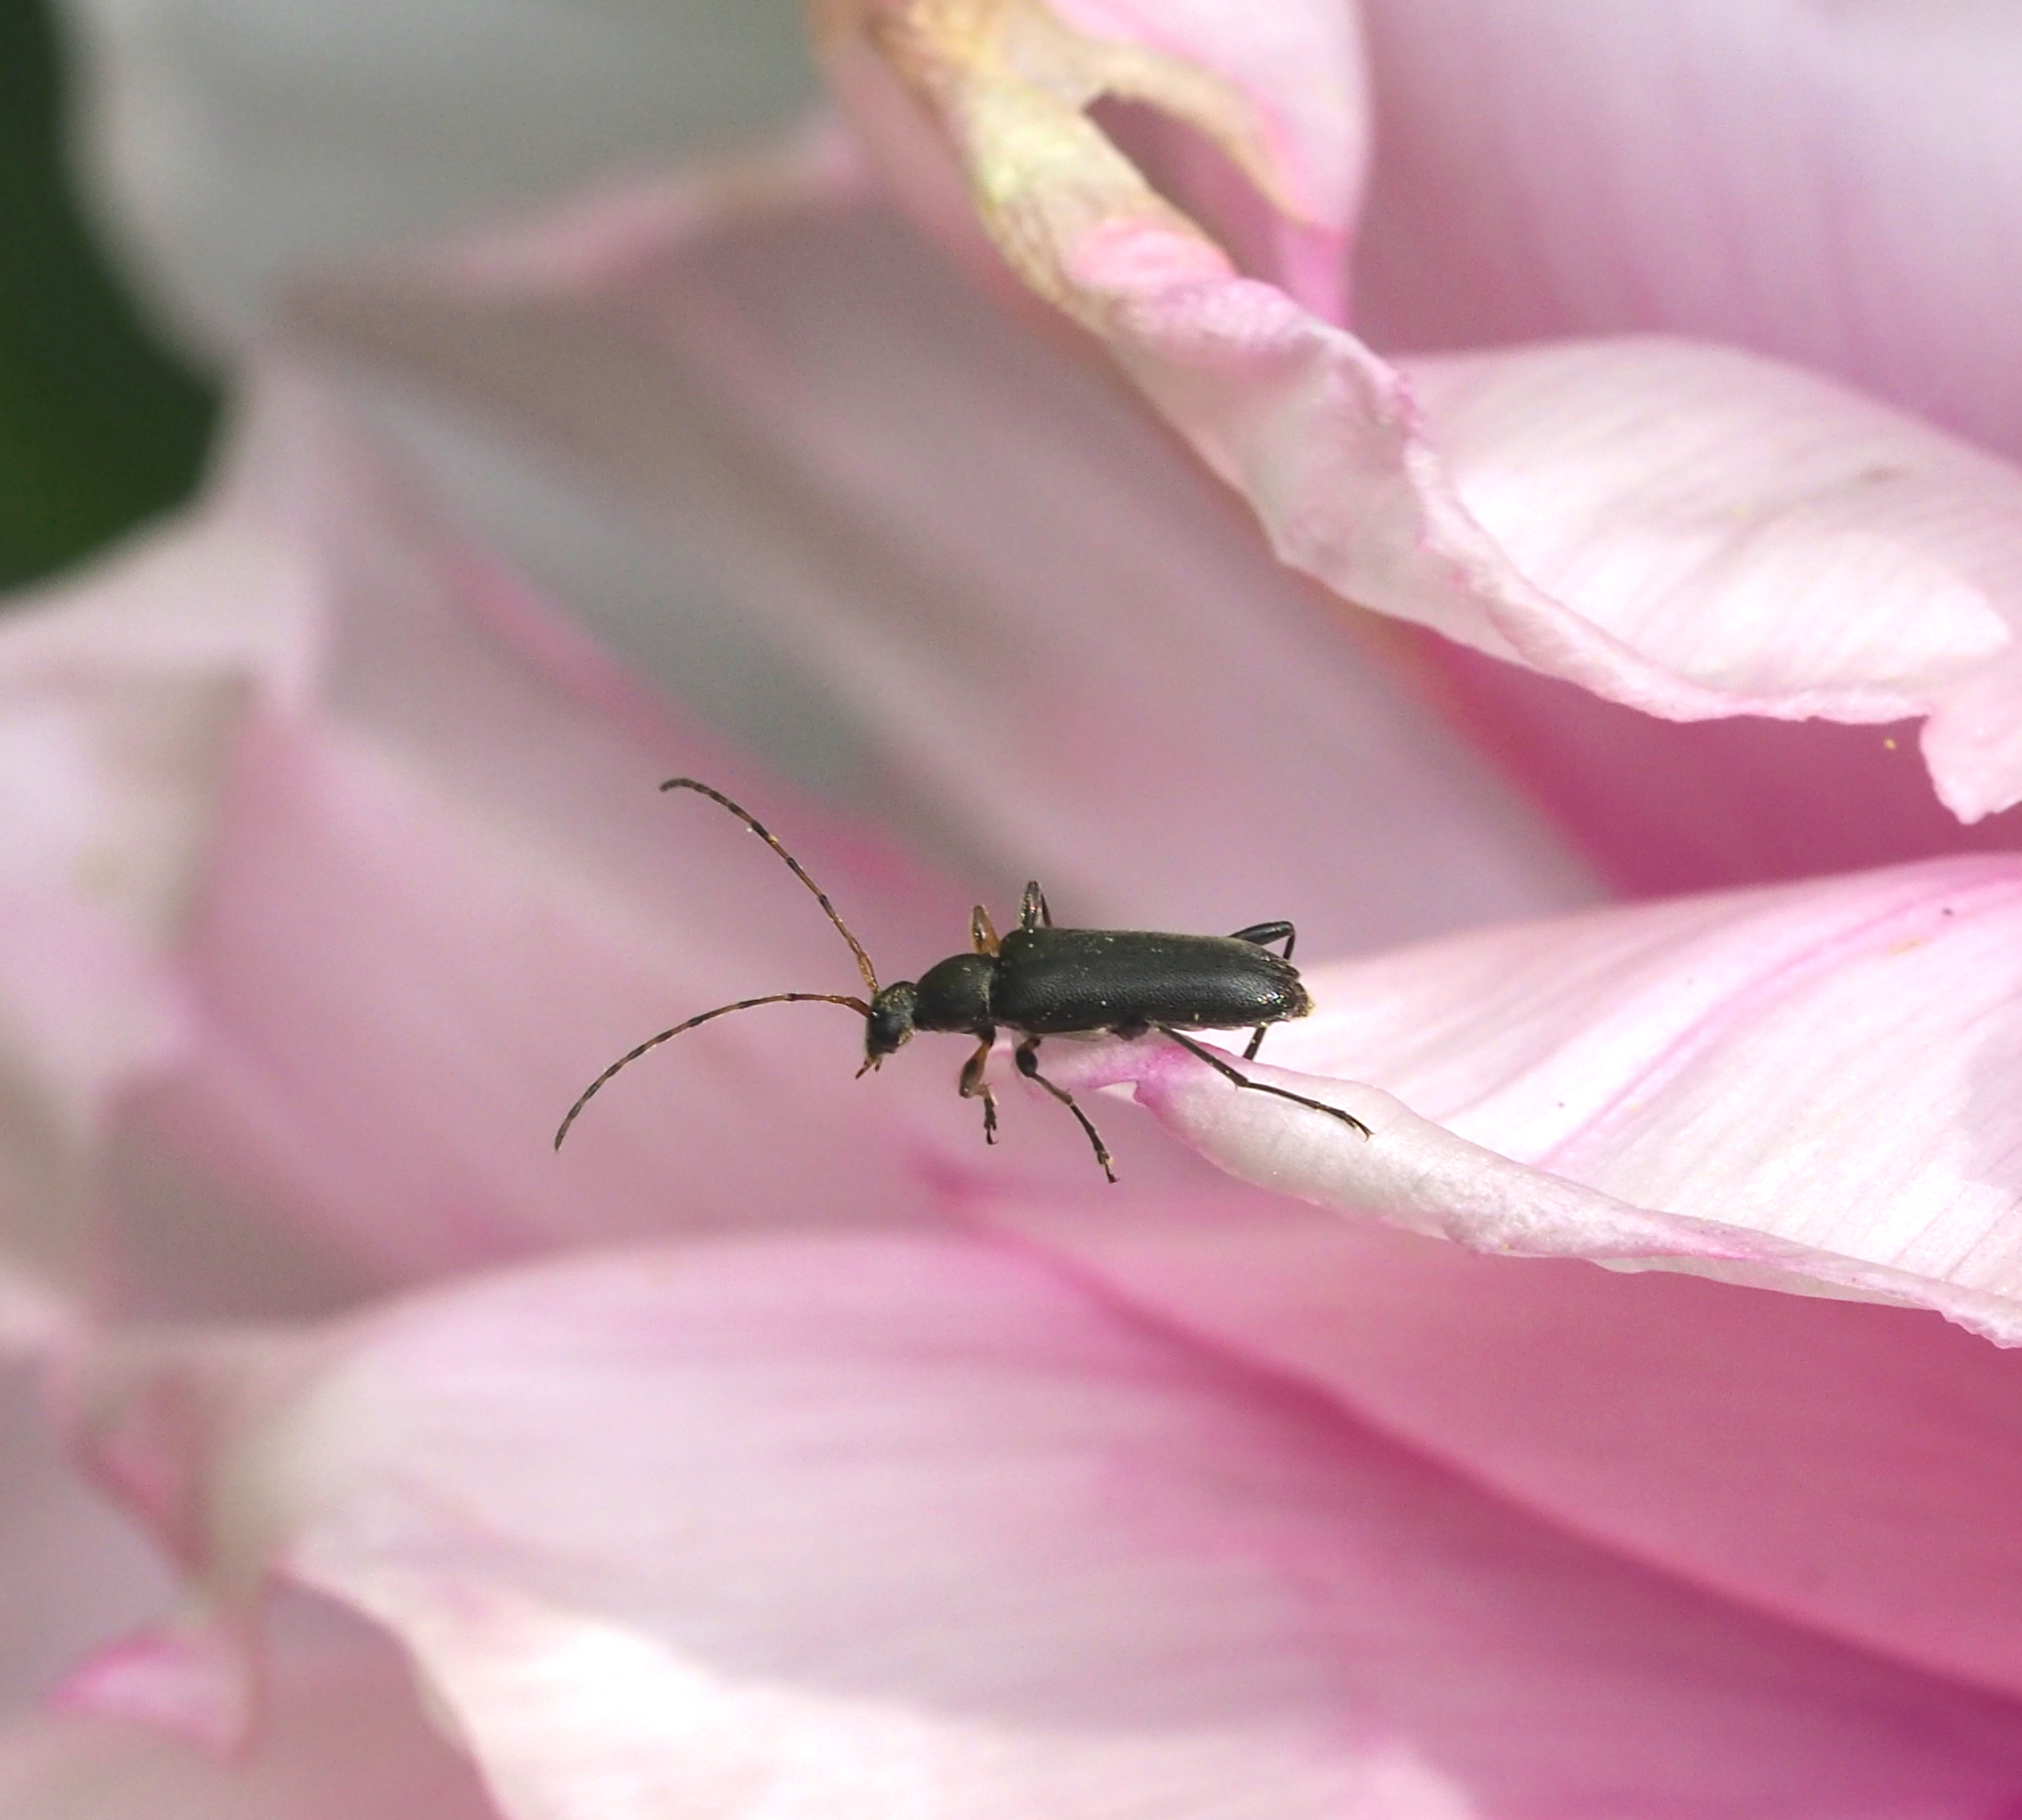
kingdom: Animalia
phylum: Arthropoda
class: Insecta
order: Coleoptera
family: Cerambycidae
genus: Grammoptera
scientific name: Grammoptera ruficornis
